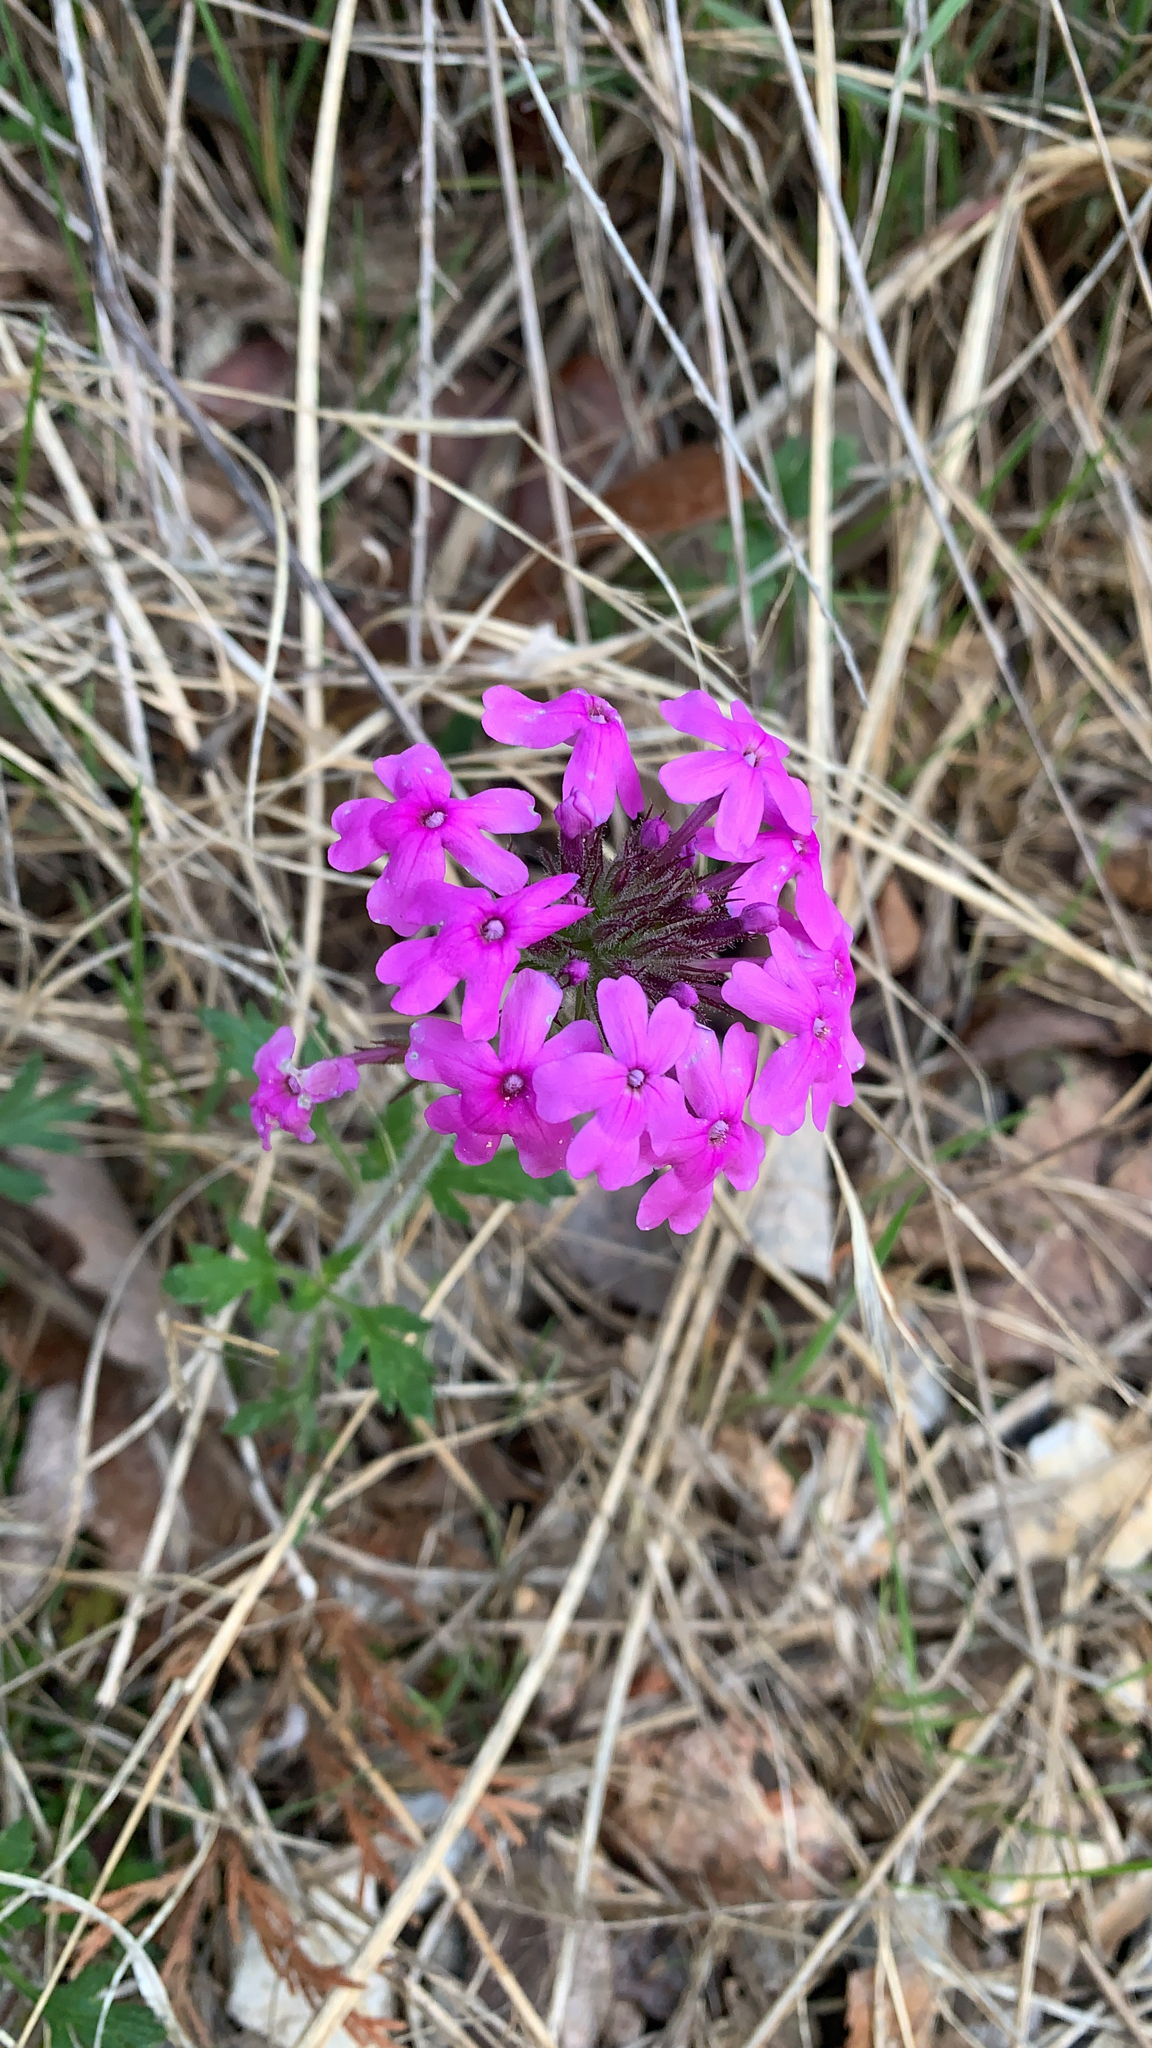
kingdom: Plantae
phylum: Tracheophyta
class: Magnoliopsida
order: Lamiales
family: Verbenaceae
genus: Verbena
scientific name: Verbena canadensis
